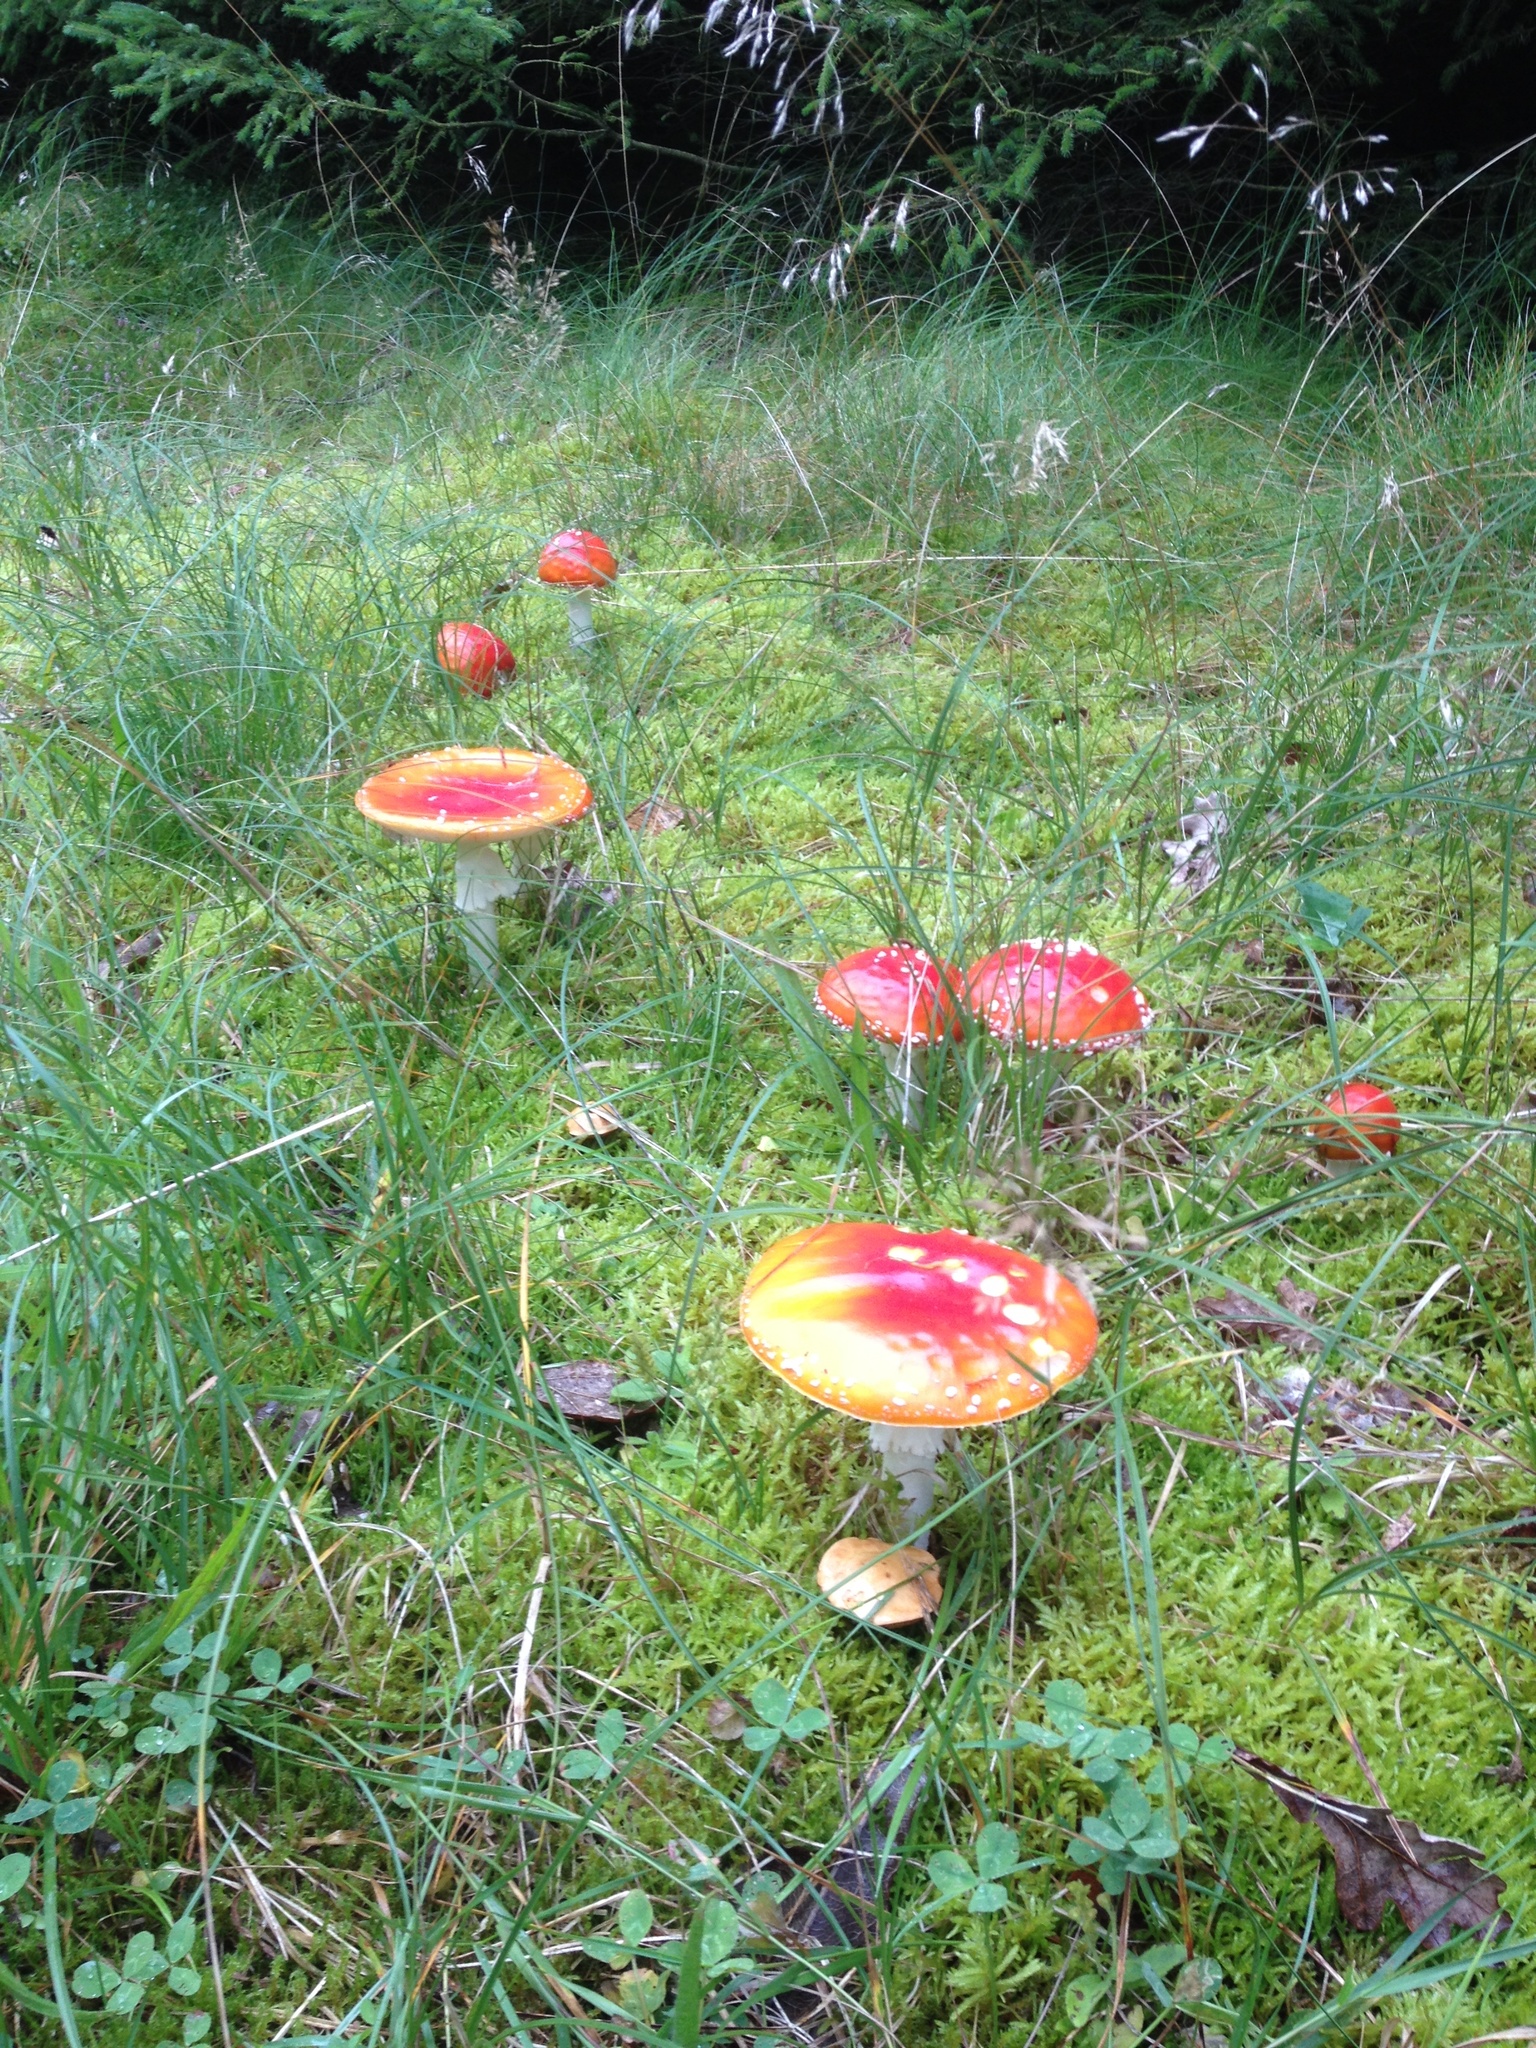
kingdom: Fungi
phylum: Basidiomycota
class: Agaricomycetes
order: Agaricales
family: Amanitaceae
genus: Amanita
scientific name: Amanita muscaria
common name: Fly agaric
